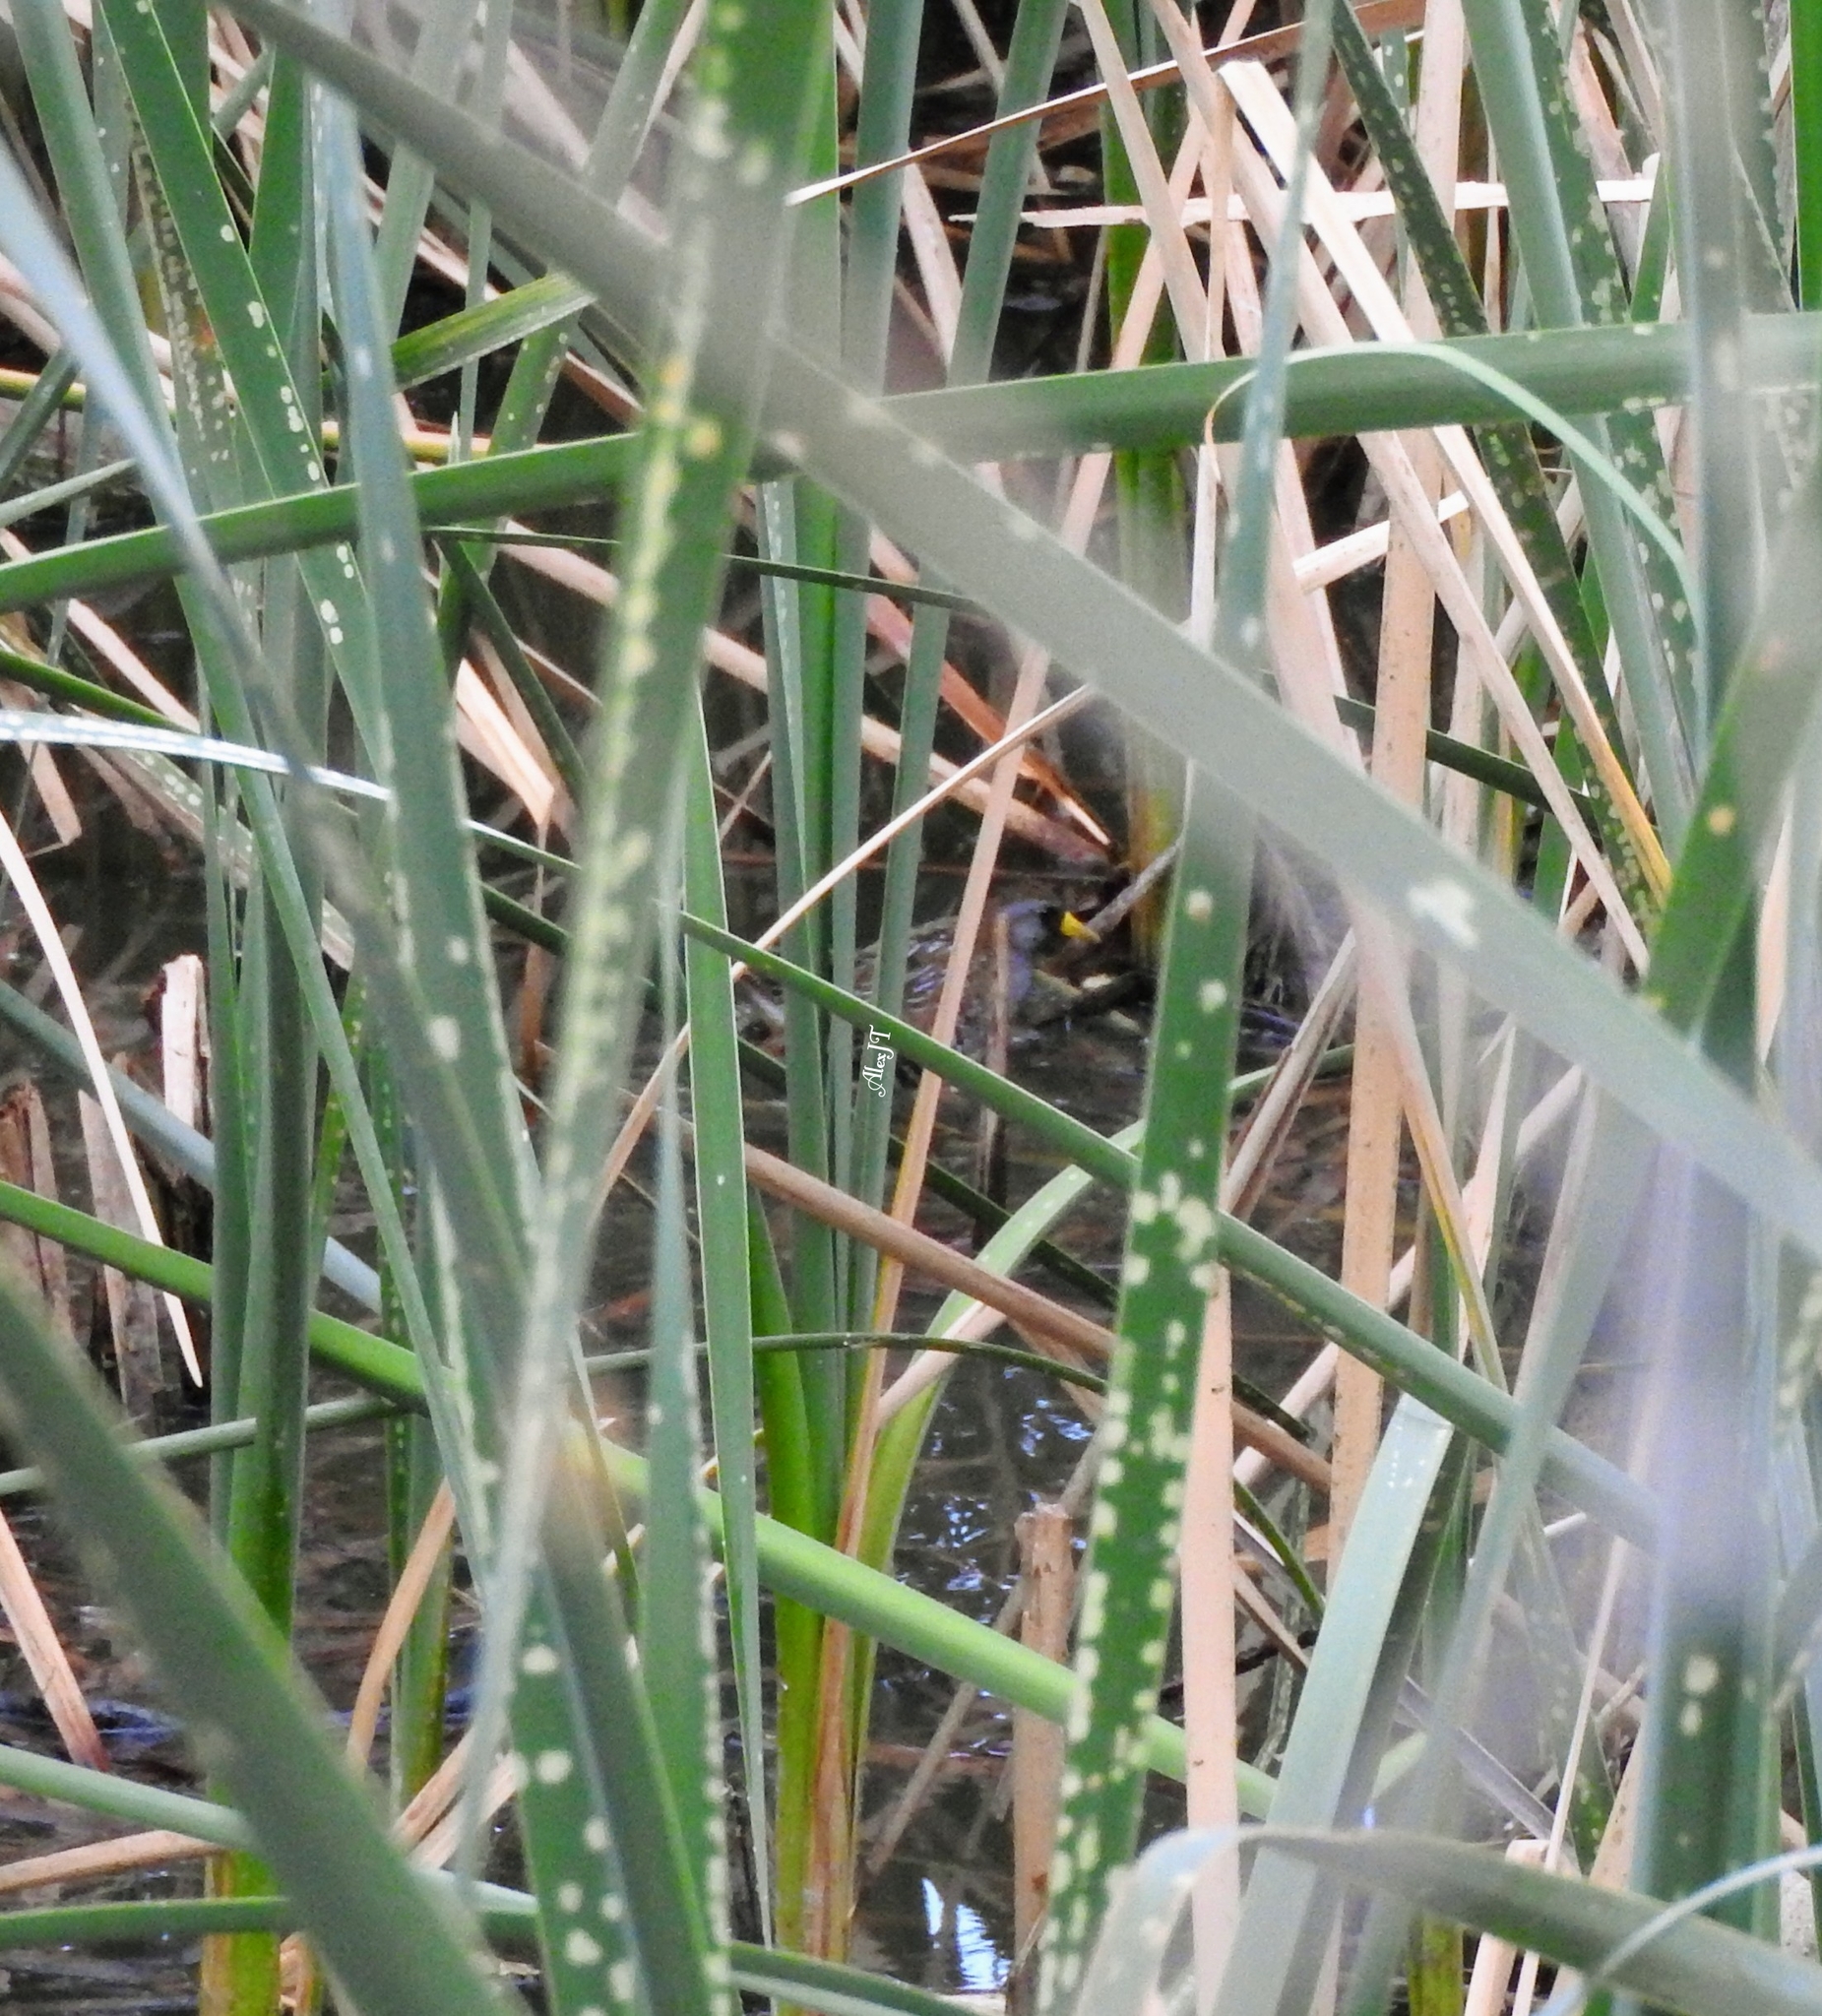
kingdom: Animalia
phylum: Chordata
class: Aves
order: Gruiformes
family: Rallidae
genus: Porzana
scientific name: Porzana carolina
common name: Sora
